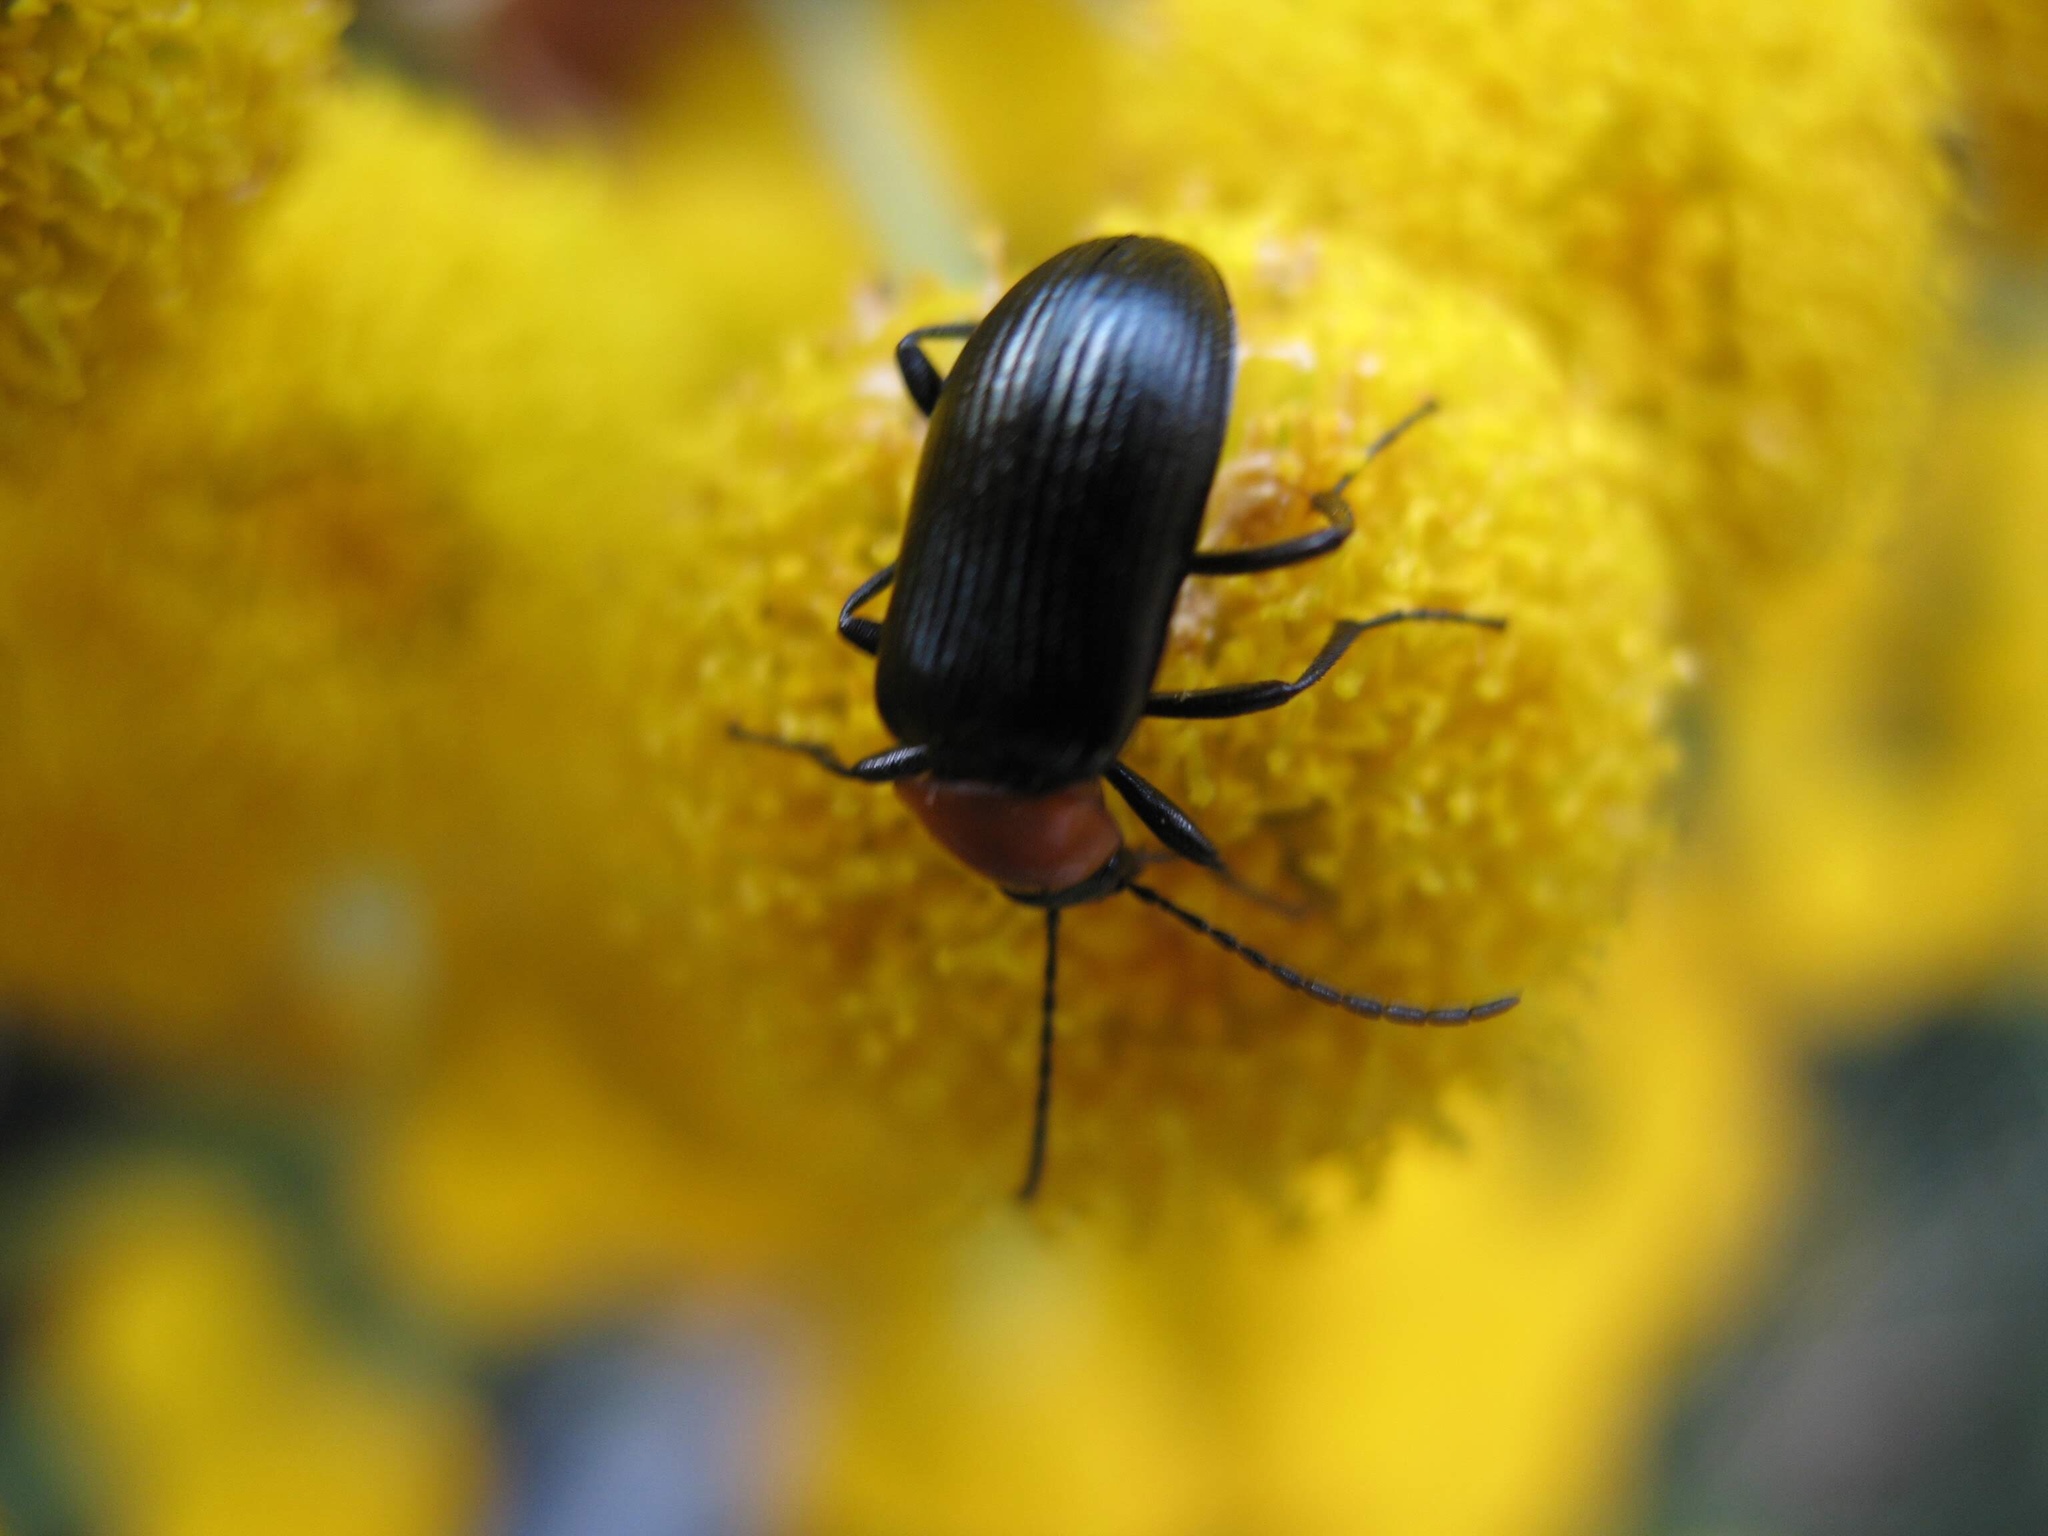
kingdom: Animalia
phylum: Arthropoda
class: Insecta
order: Coleoptera
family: Tenebrionidae
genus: Heliotaurus
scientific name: Heliotaurus ruficollis
